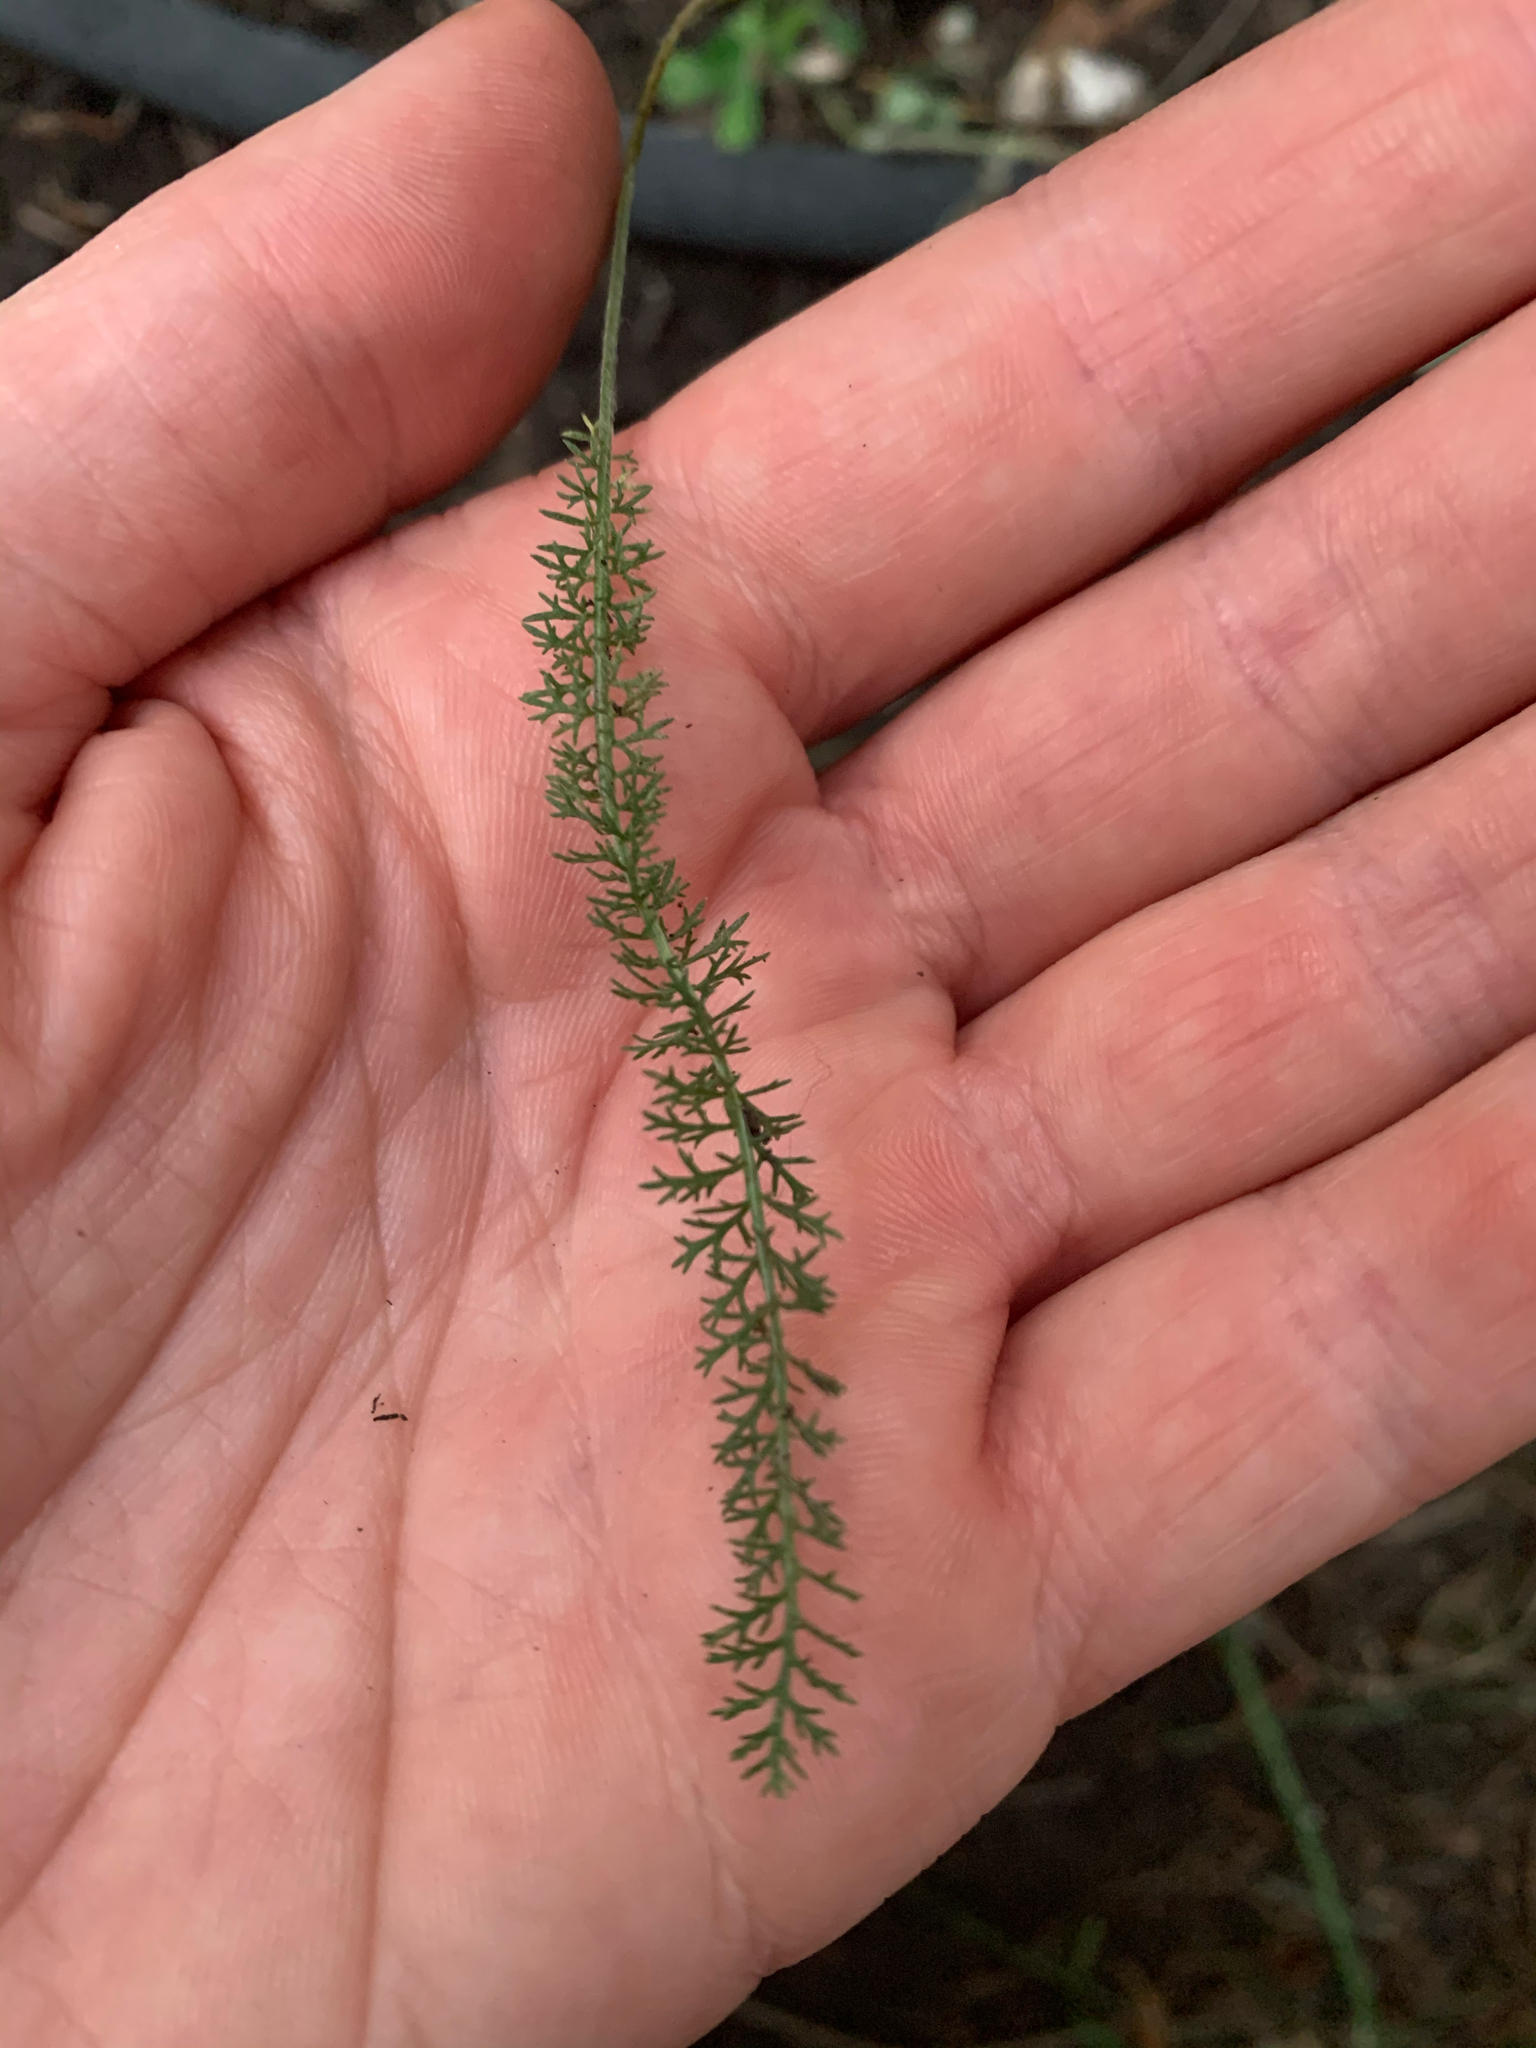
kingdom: Plantae
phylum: Tracheophyta
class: Magnoliopsida
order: Asterales
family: Asteraceae
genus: Achillea
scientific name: Achillea millefolium
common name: Yarrow
